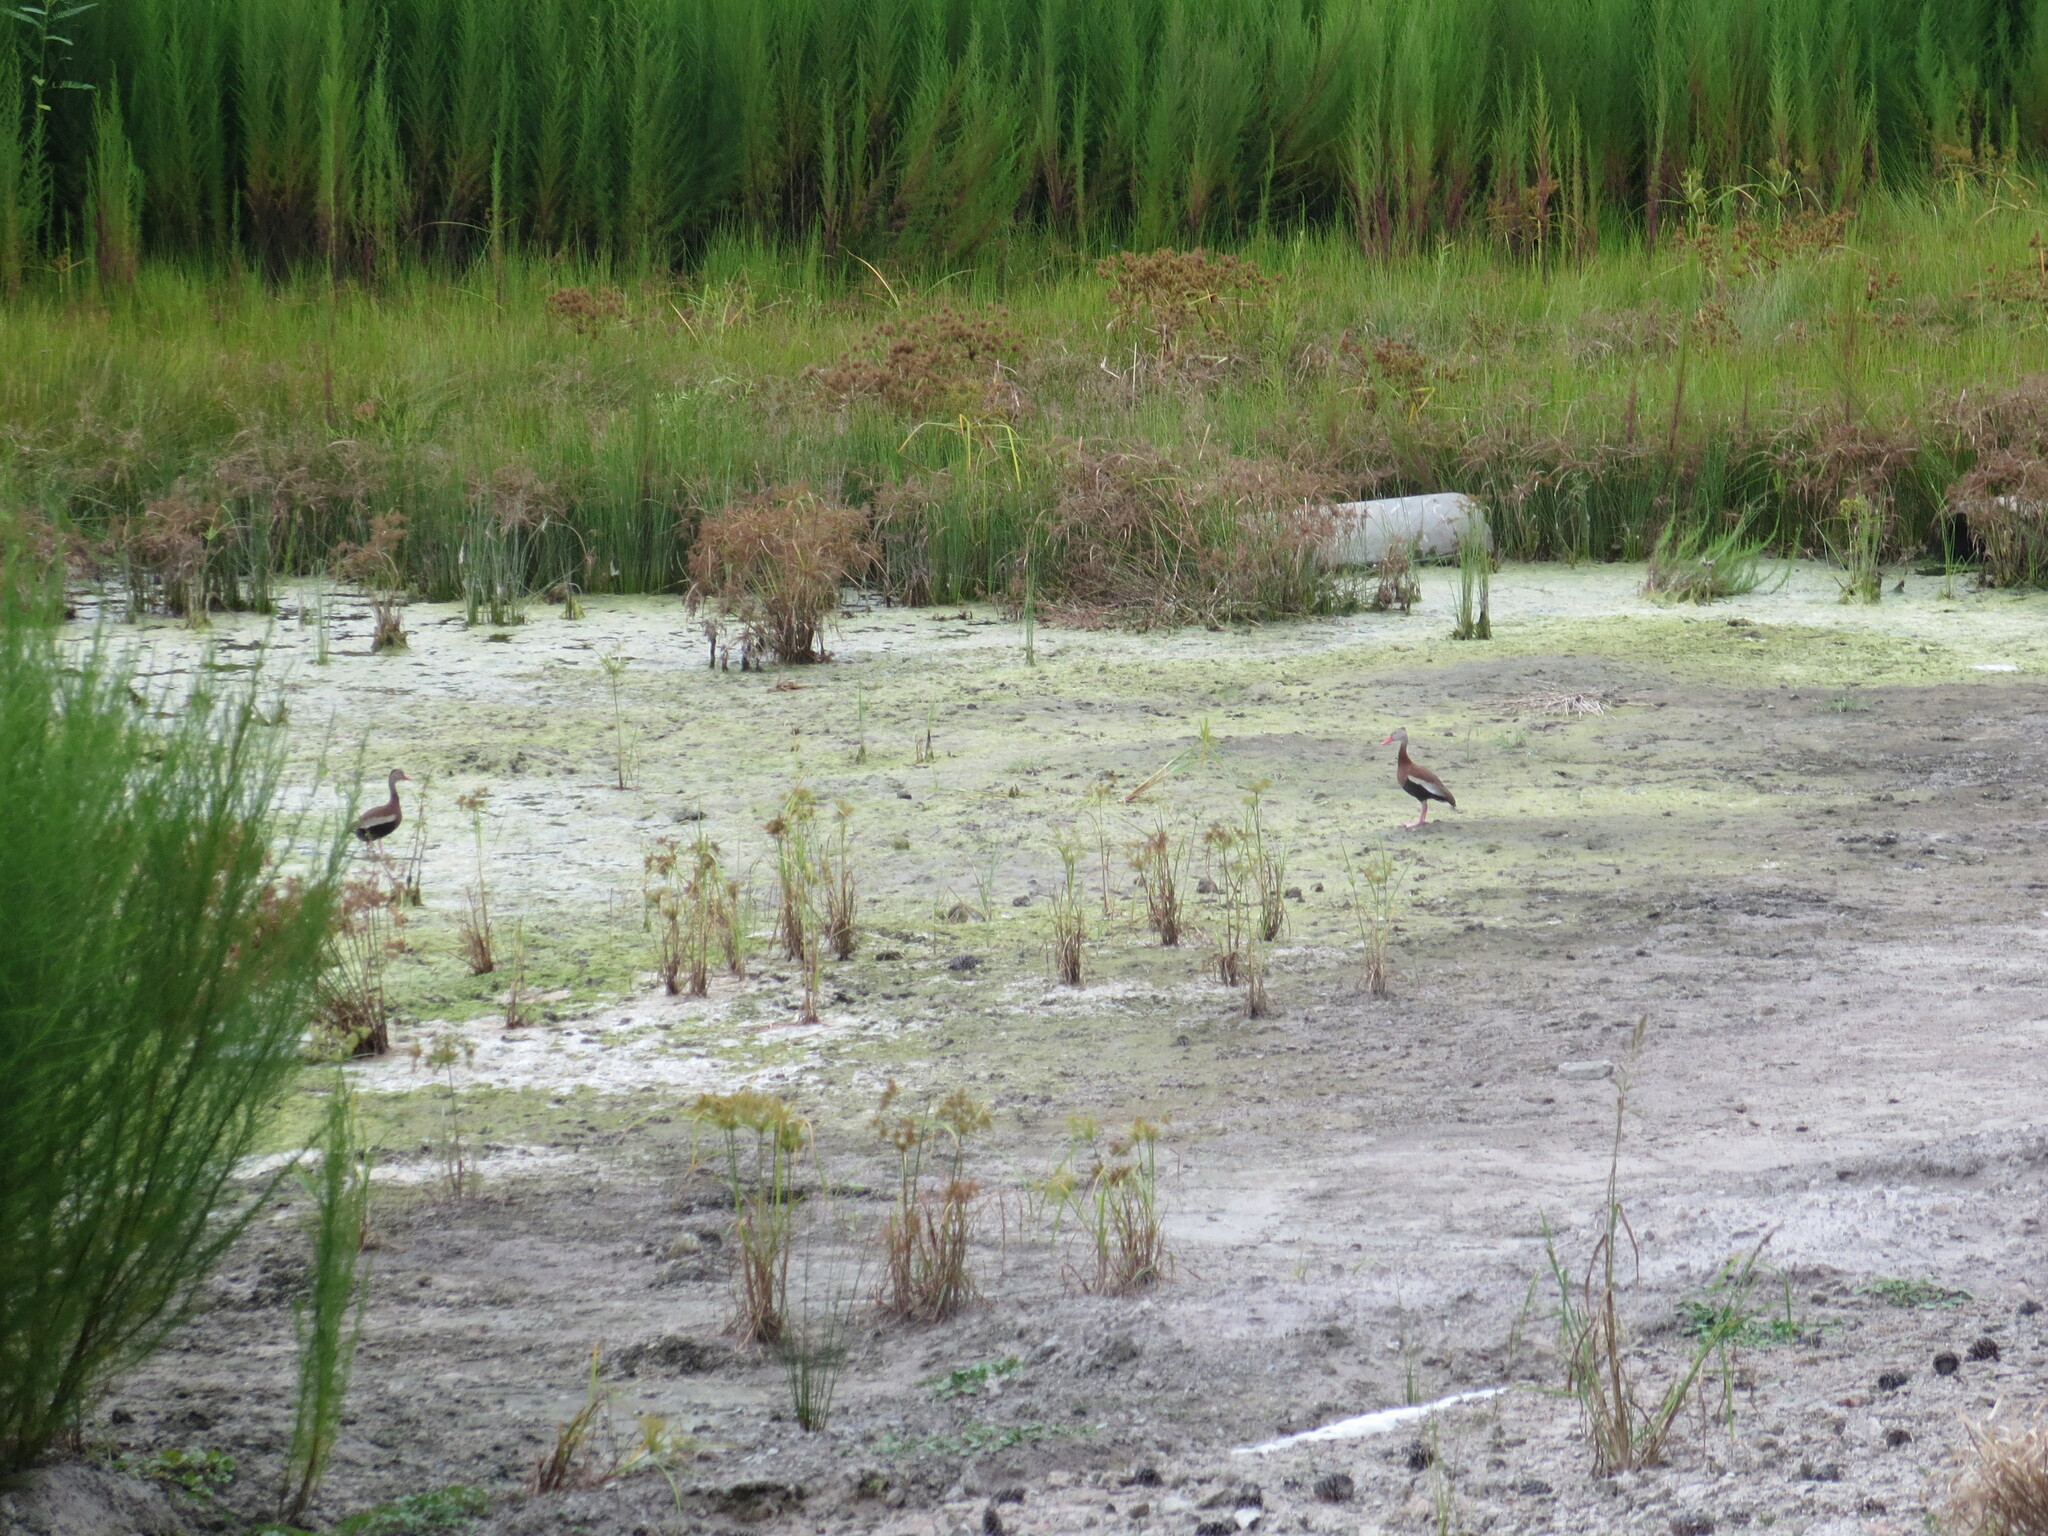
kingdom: Animalia
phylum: Chordata
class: Aves
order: Anseriformes
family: Anatidae
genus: Dendrocygna
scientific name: Dendrocygna autumnalis
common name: Black-bellied whistling duck
